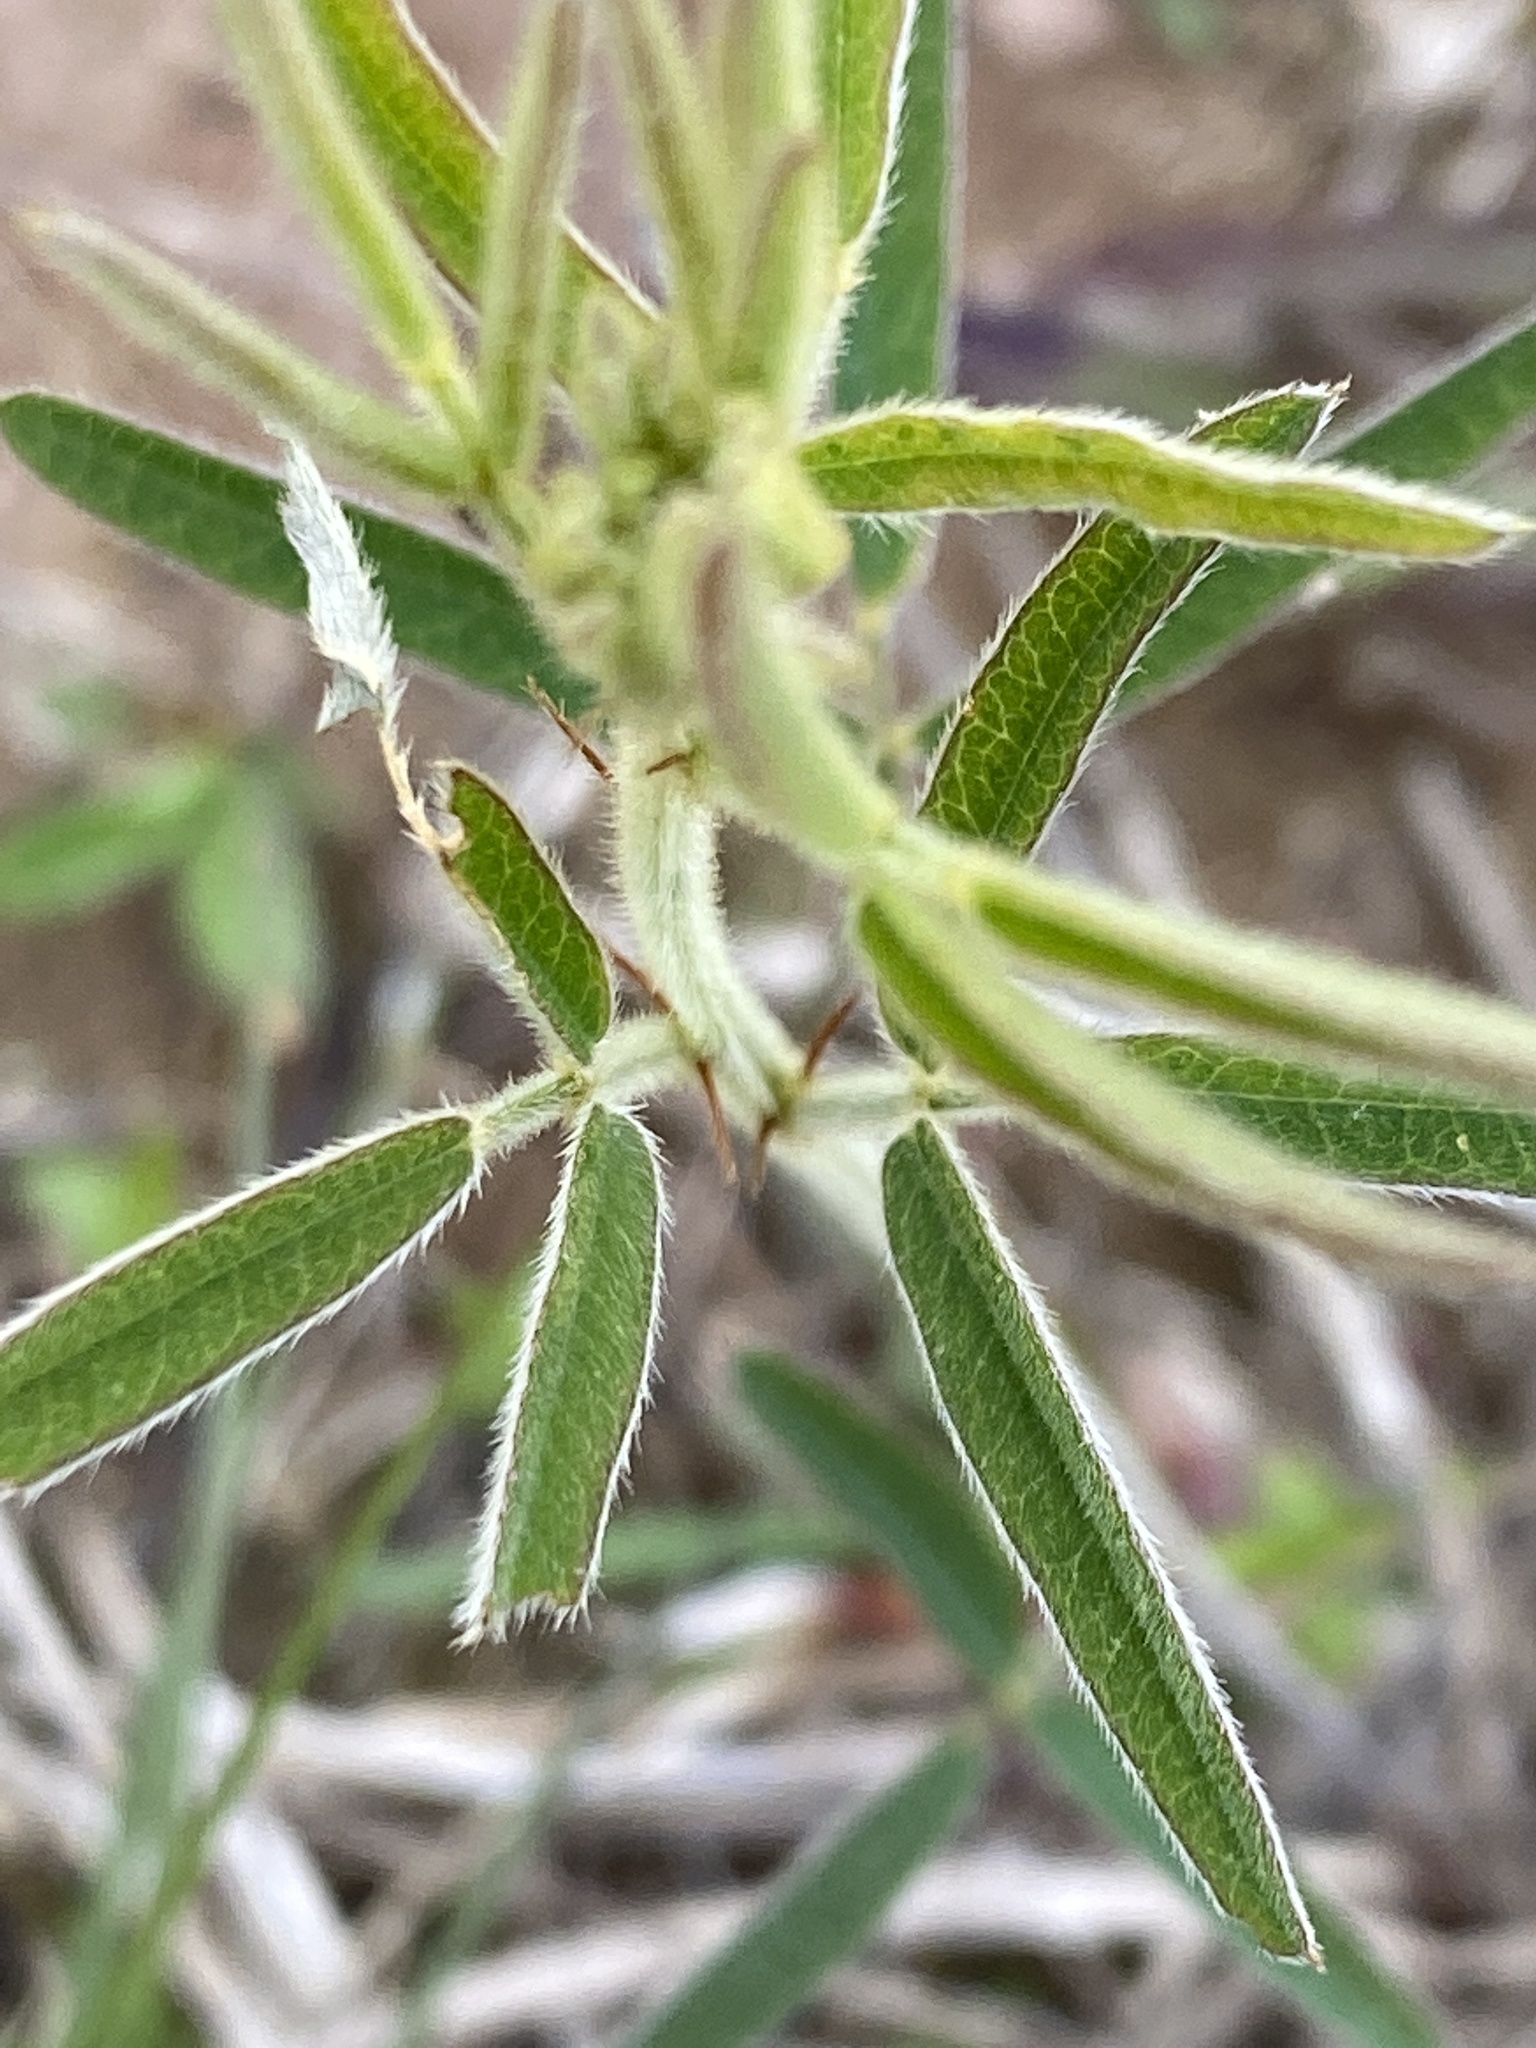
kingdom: Plantae
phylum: Tracheophyta
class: Magnoliopsida
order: Fabales
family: Fabaceae
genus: Lespedeza
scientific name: Lespedeza angustifolia
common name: Narrow-leaf bush-clover
